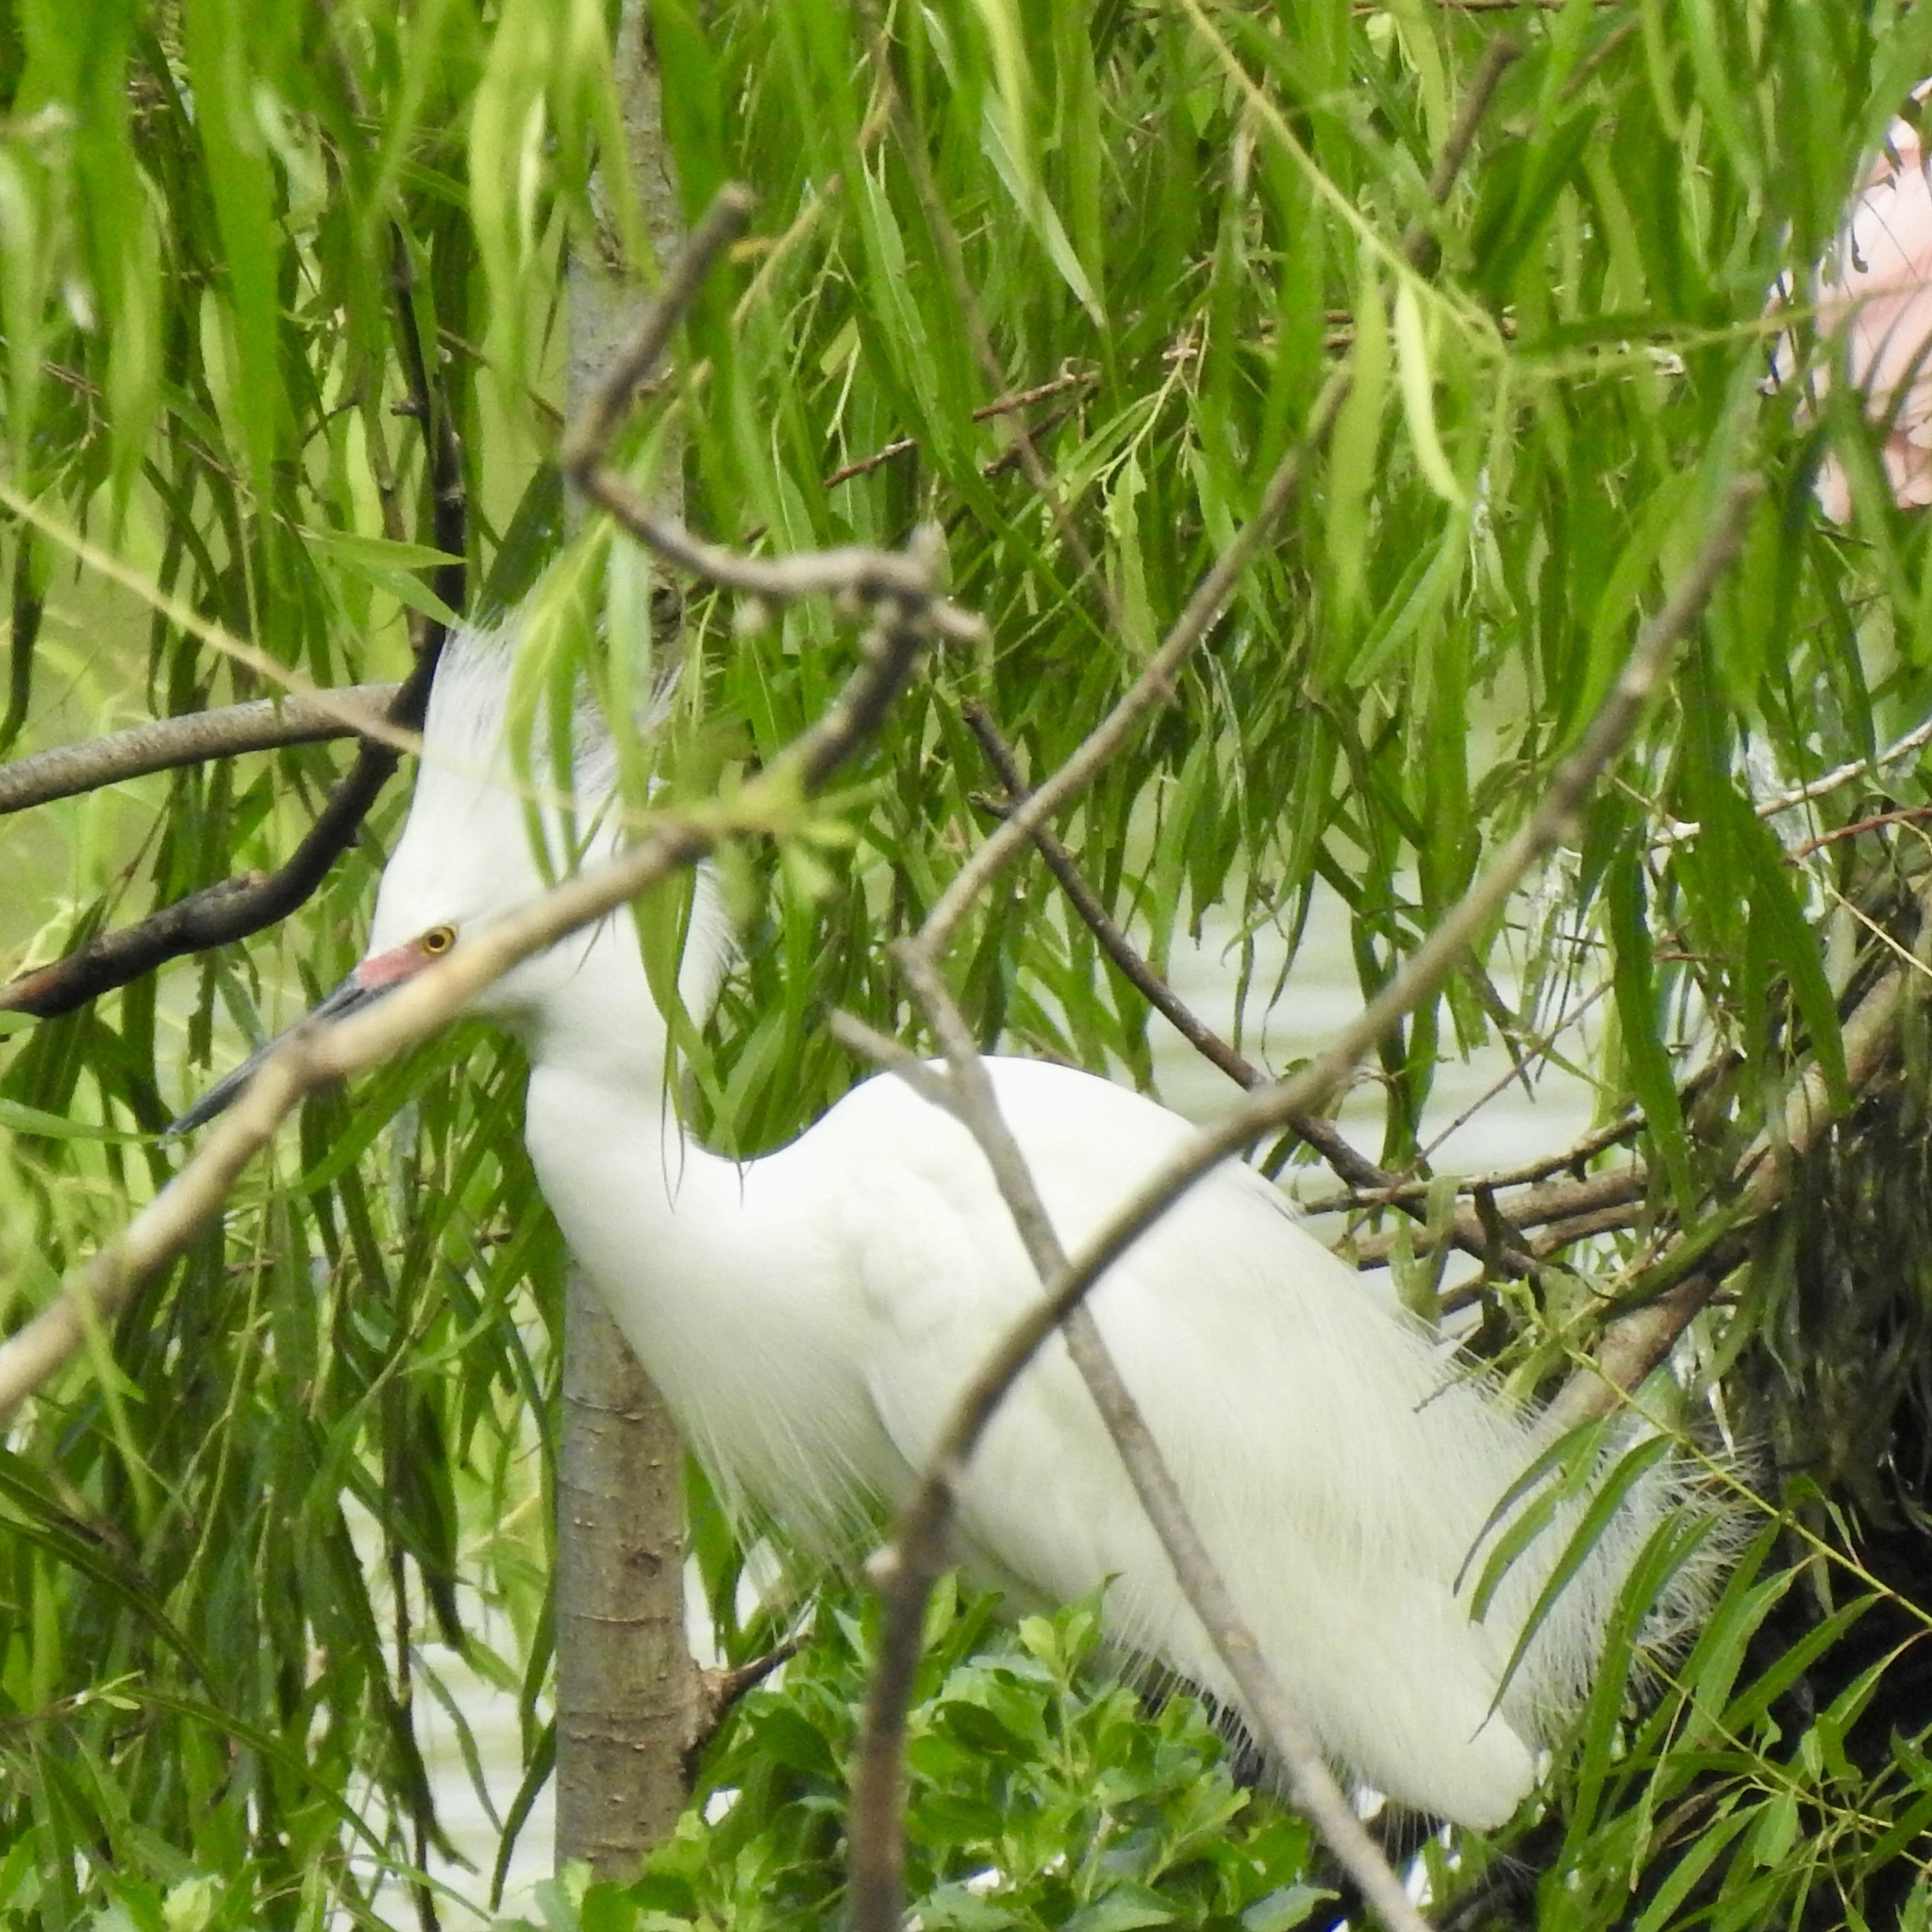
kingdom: Animalia
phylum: Chordata
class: Aves
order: Pelecaniformes
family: Ardeidae
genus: Egretta
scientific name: Egretta thula
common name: Snowy egret
